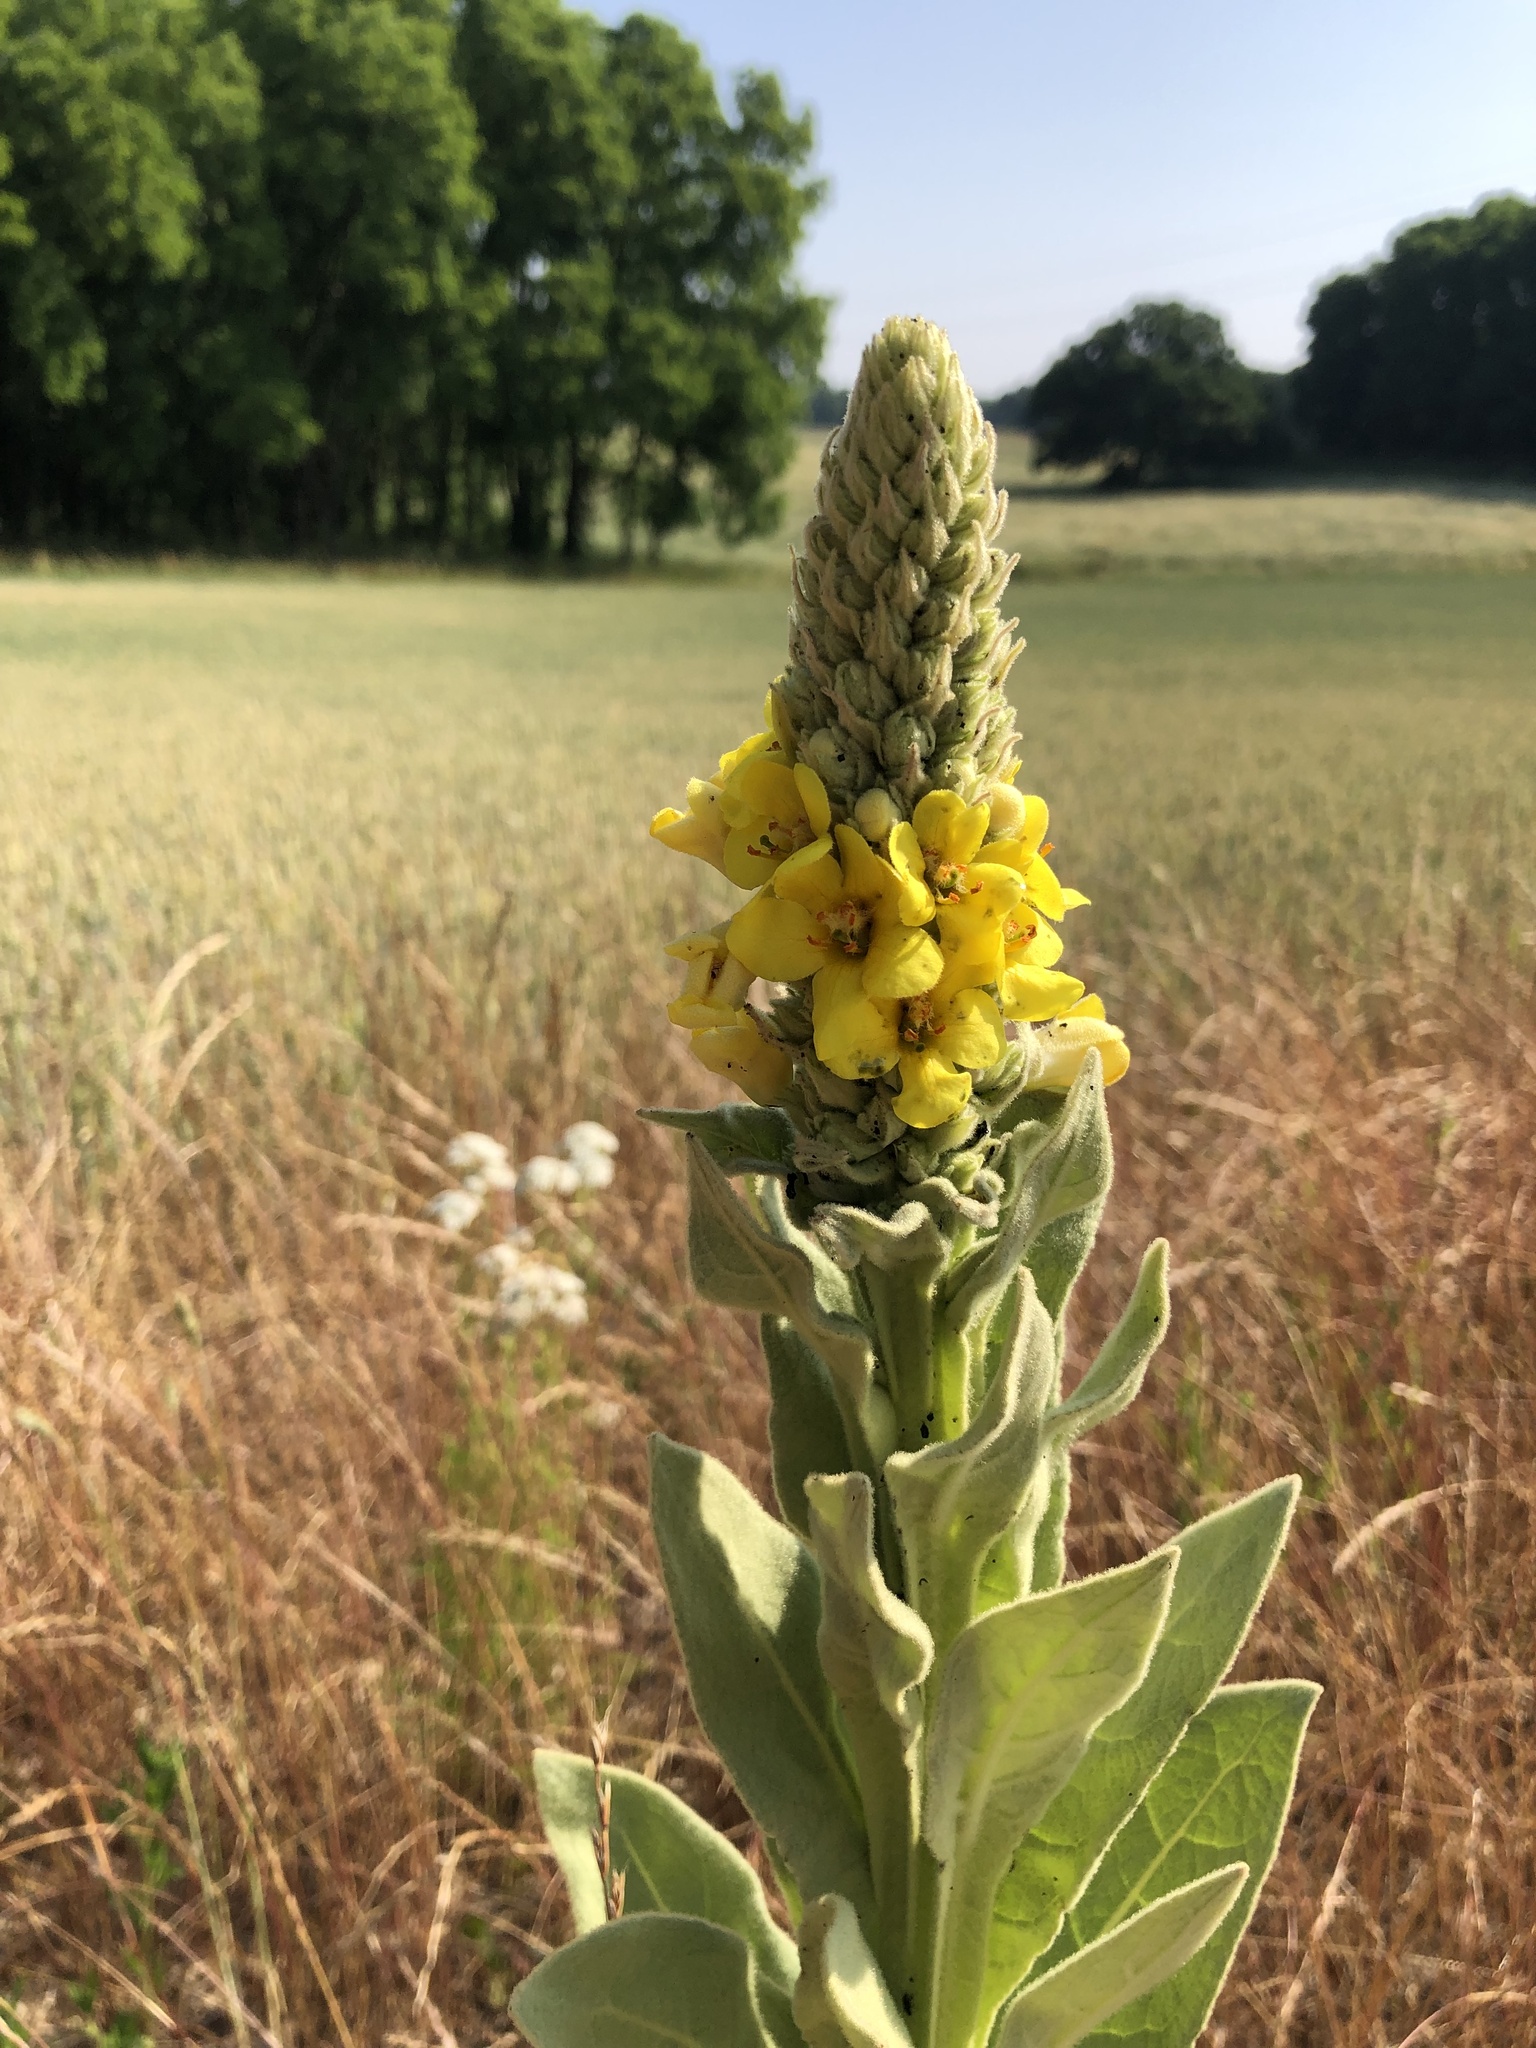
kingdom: Plantae
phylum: Tracheophyta
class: Magnoliopsida
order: Lamiales
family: Scrophulariaceae
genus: Verbascum
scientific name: Verbascum thapsus
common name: Common mullein
